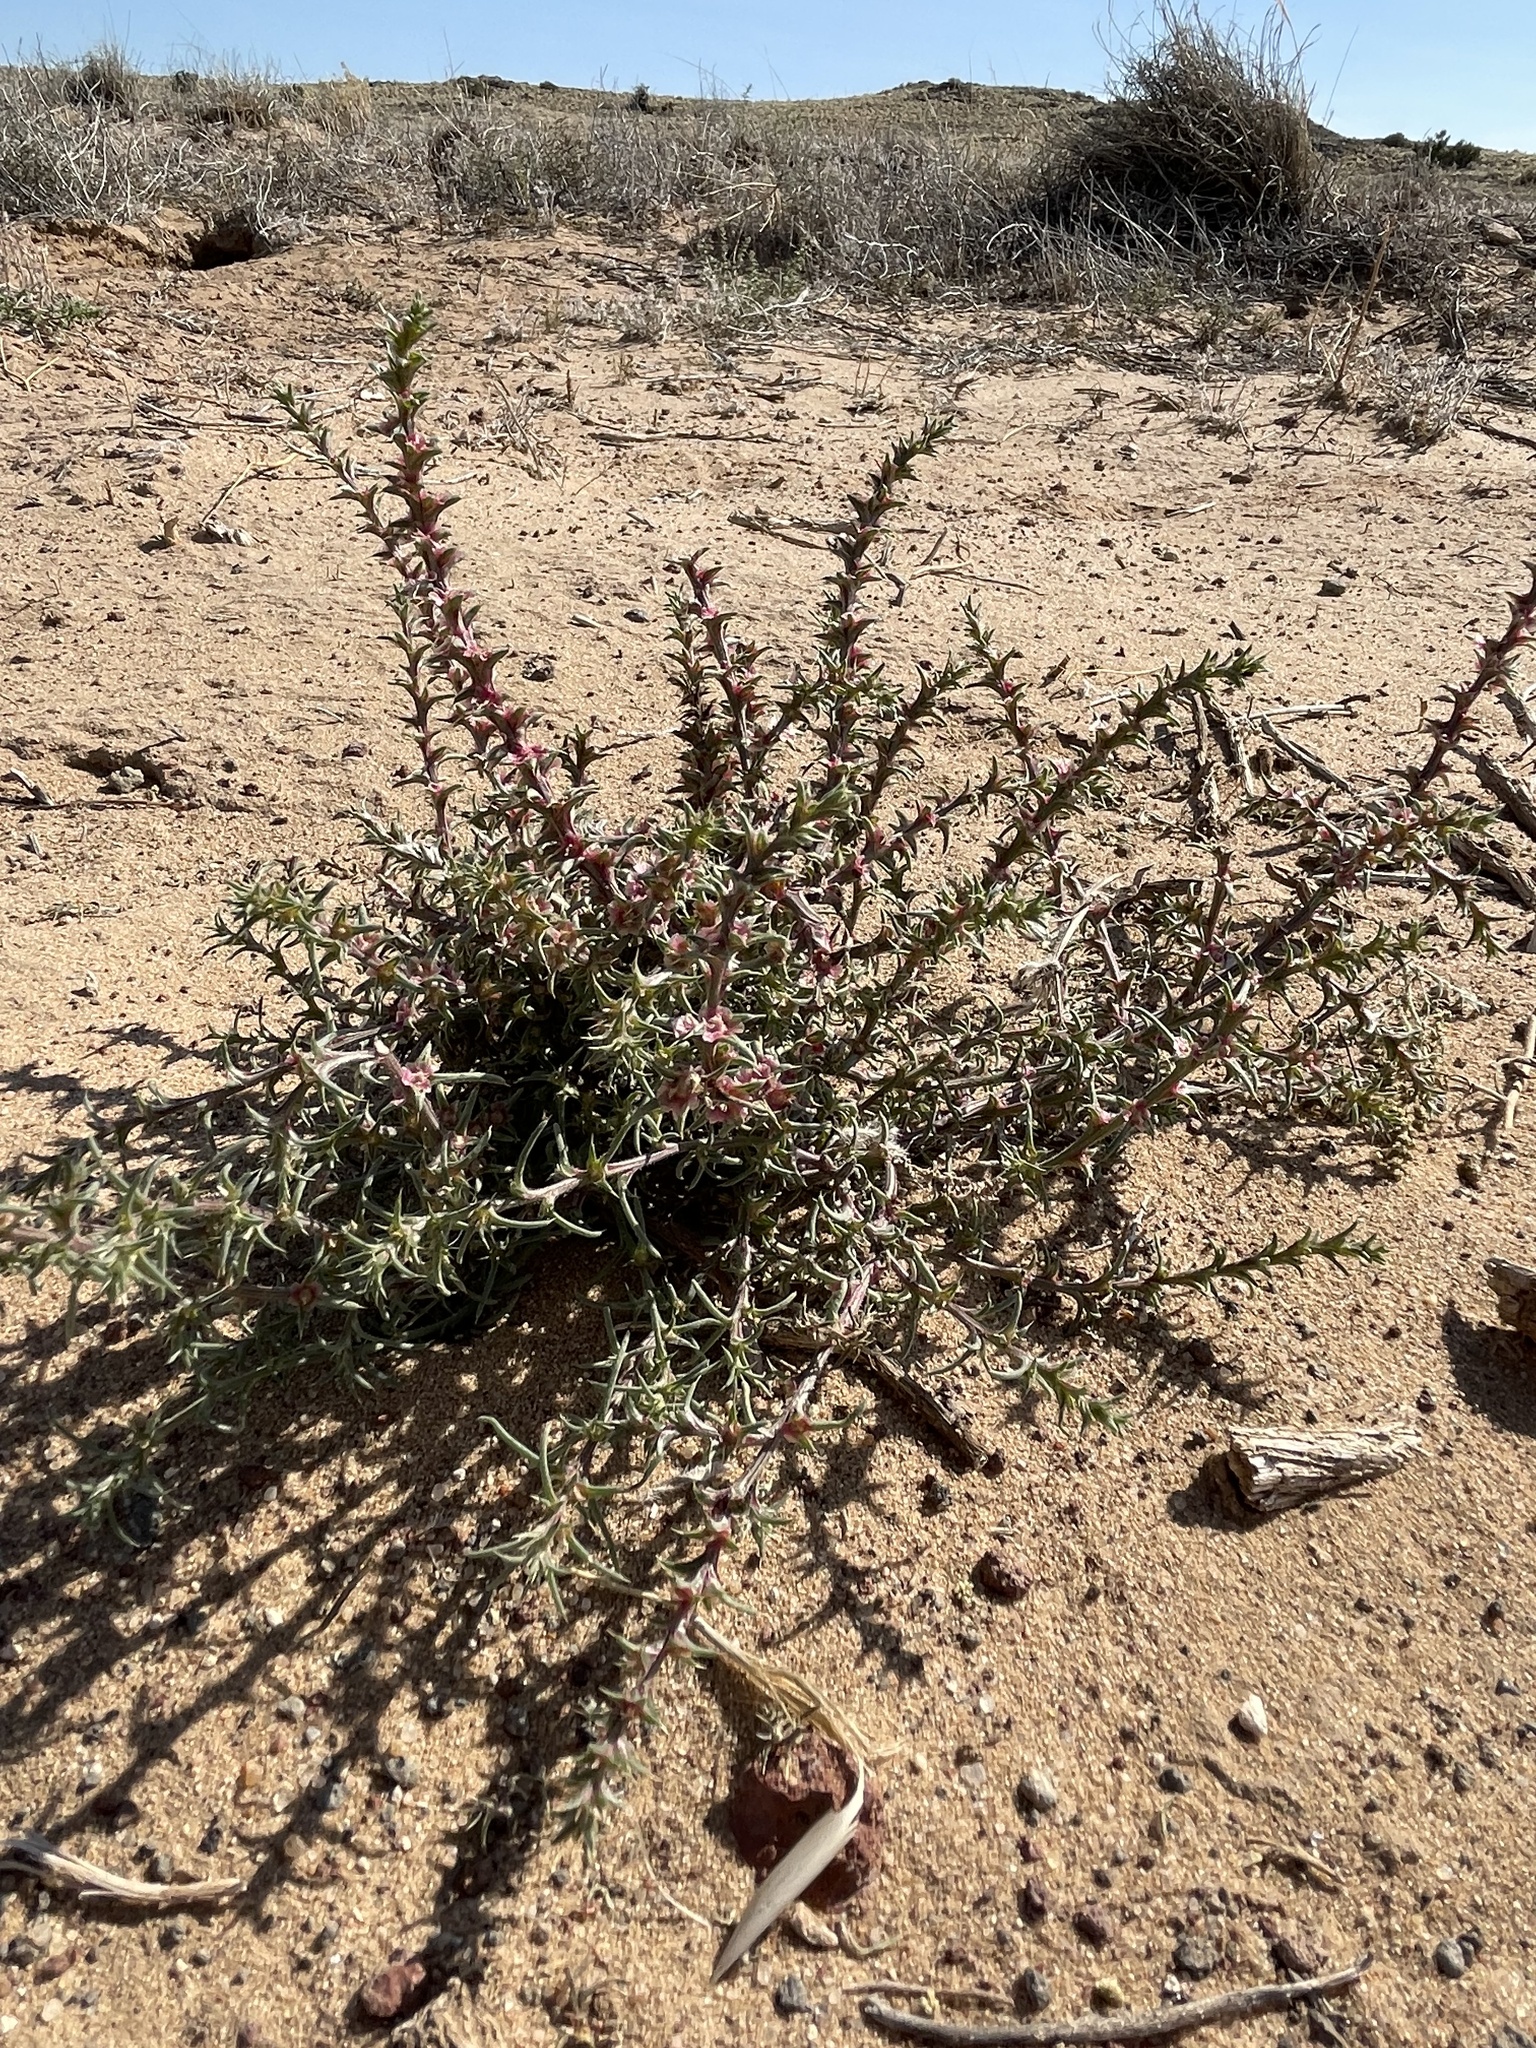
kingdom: Plantae
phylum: Tracheophyta
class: Magnoliopsida
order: Caryophyllales
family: Amaranthaceae
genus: Salsola
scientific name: Salsola tragus
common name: Prickly russian thistle
